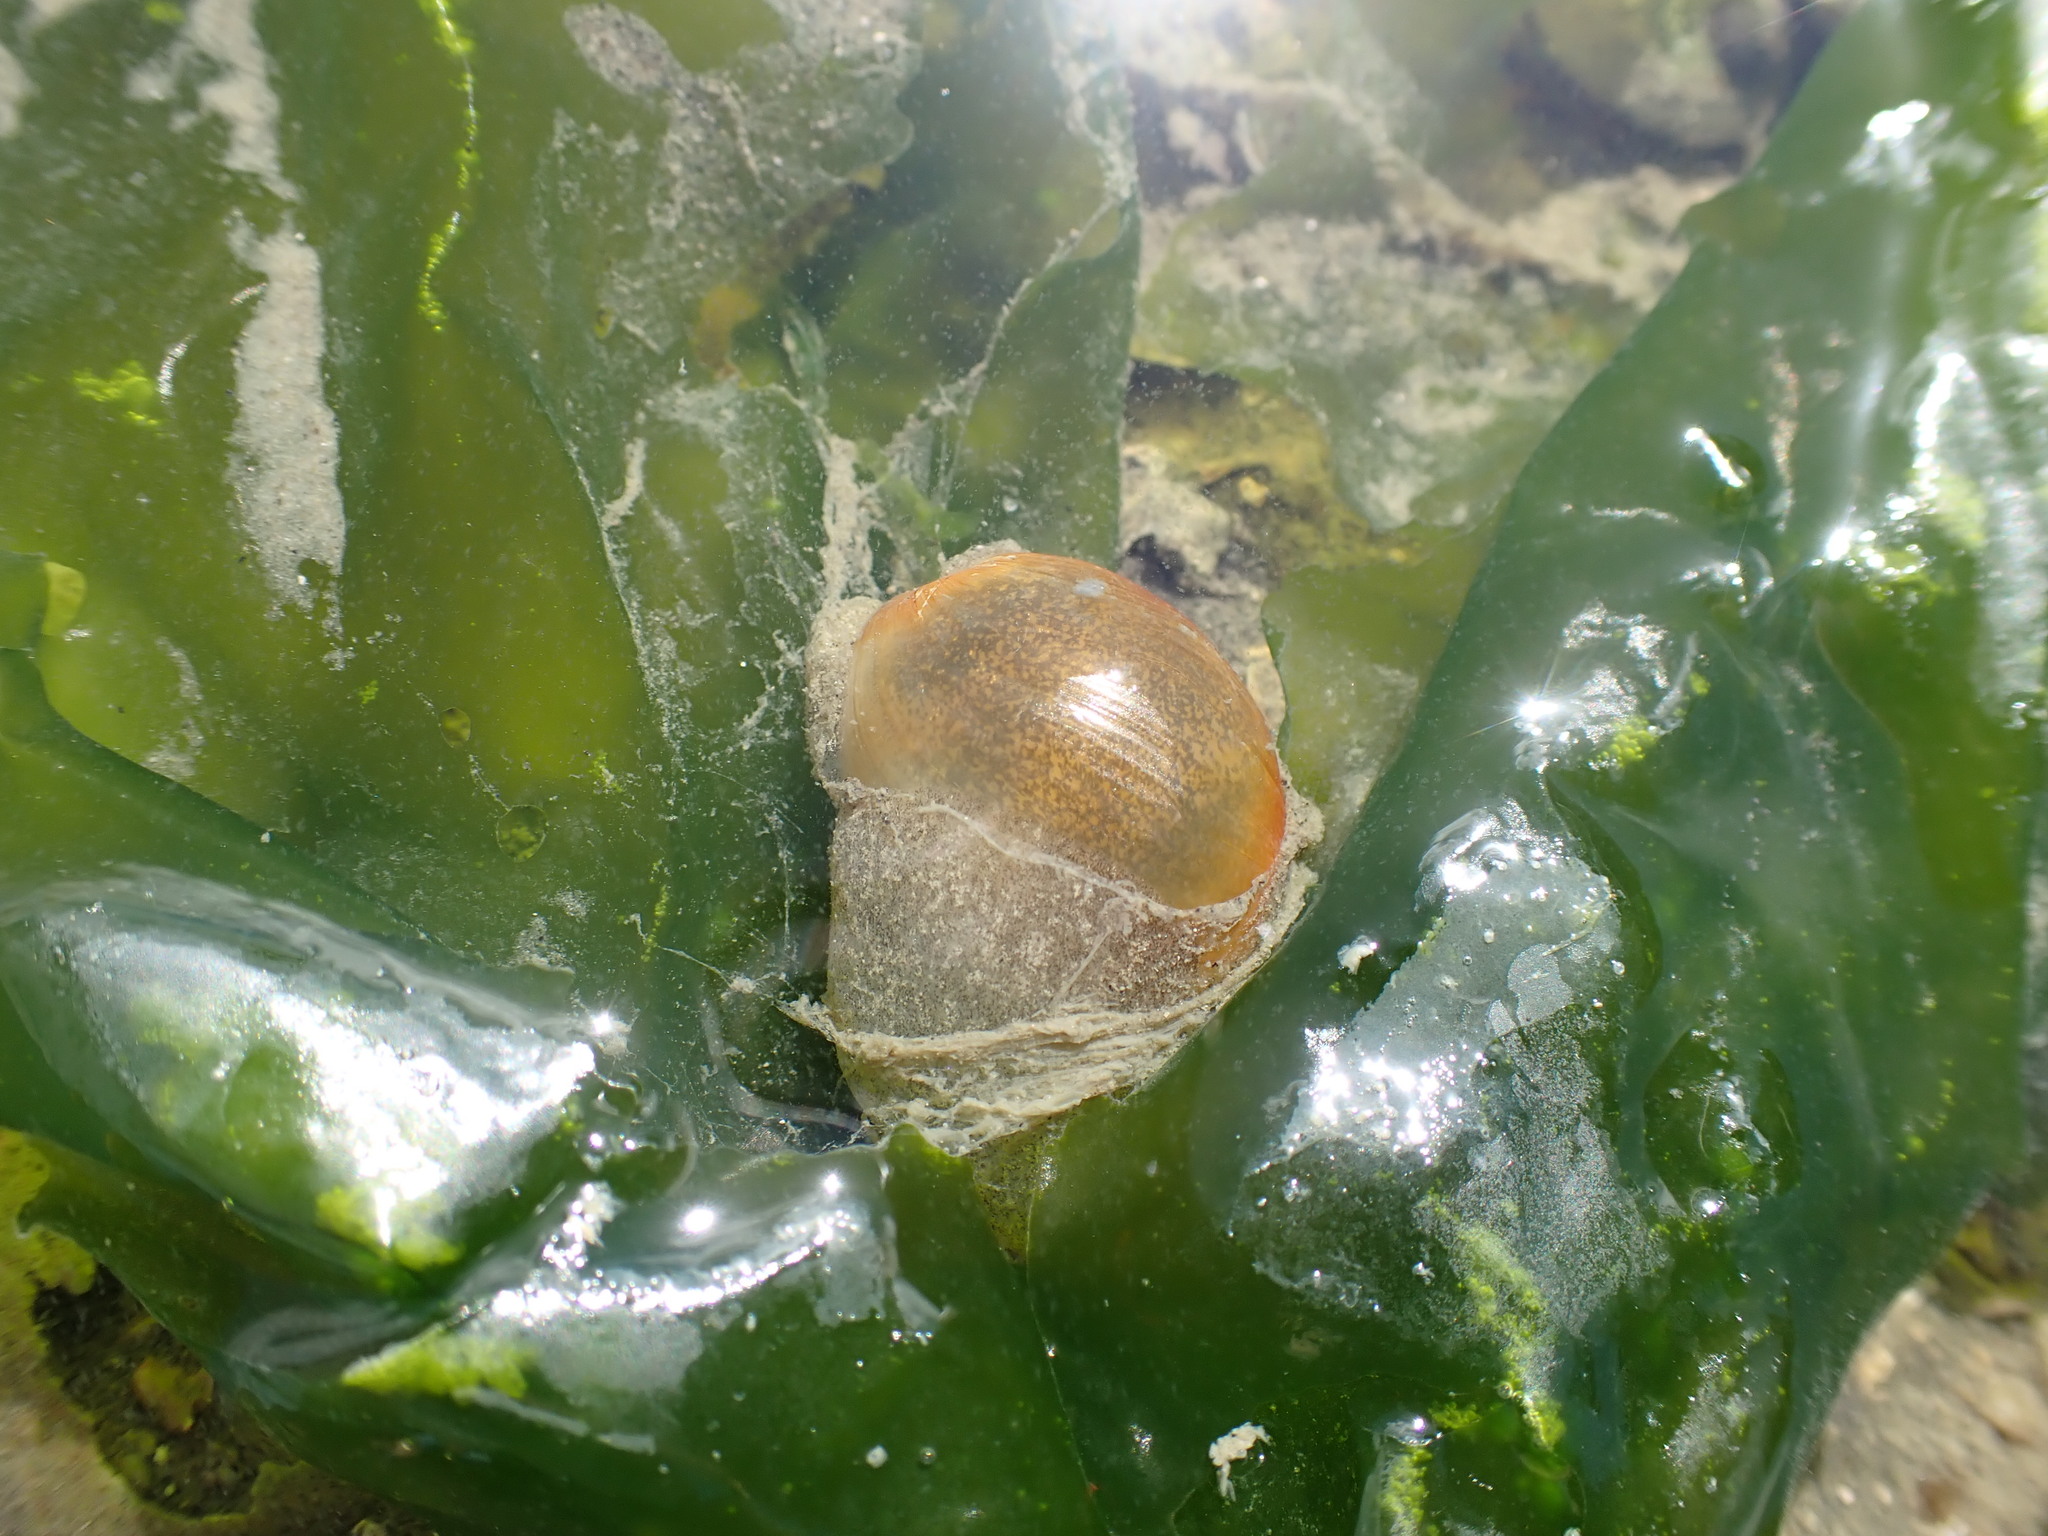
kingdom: Animalia
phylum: Mollusca
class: Gastropoda
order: Cephalaspidea
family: Haminoeidae
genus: Papawera
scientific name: Papawera zelandiae
